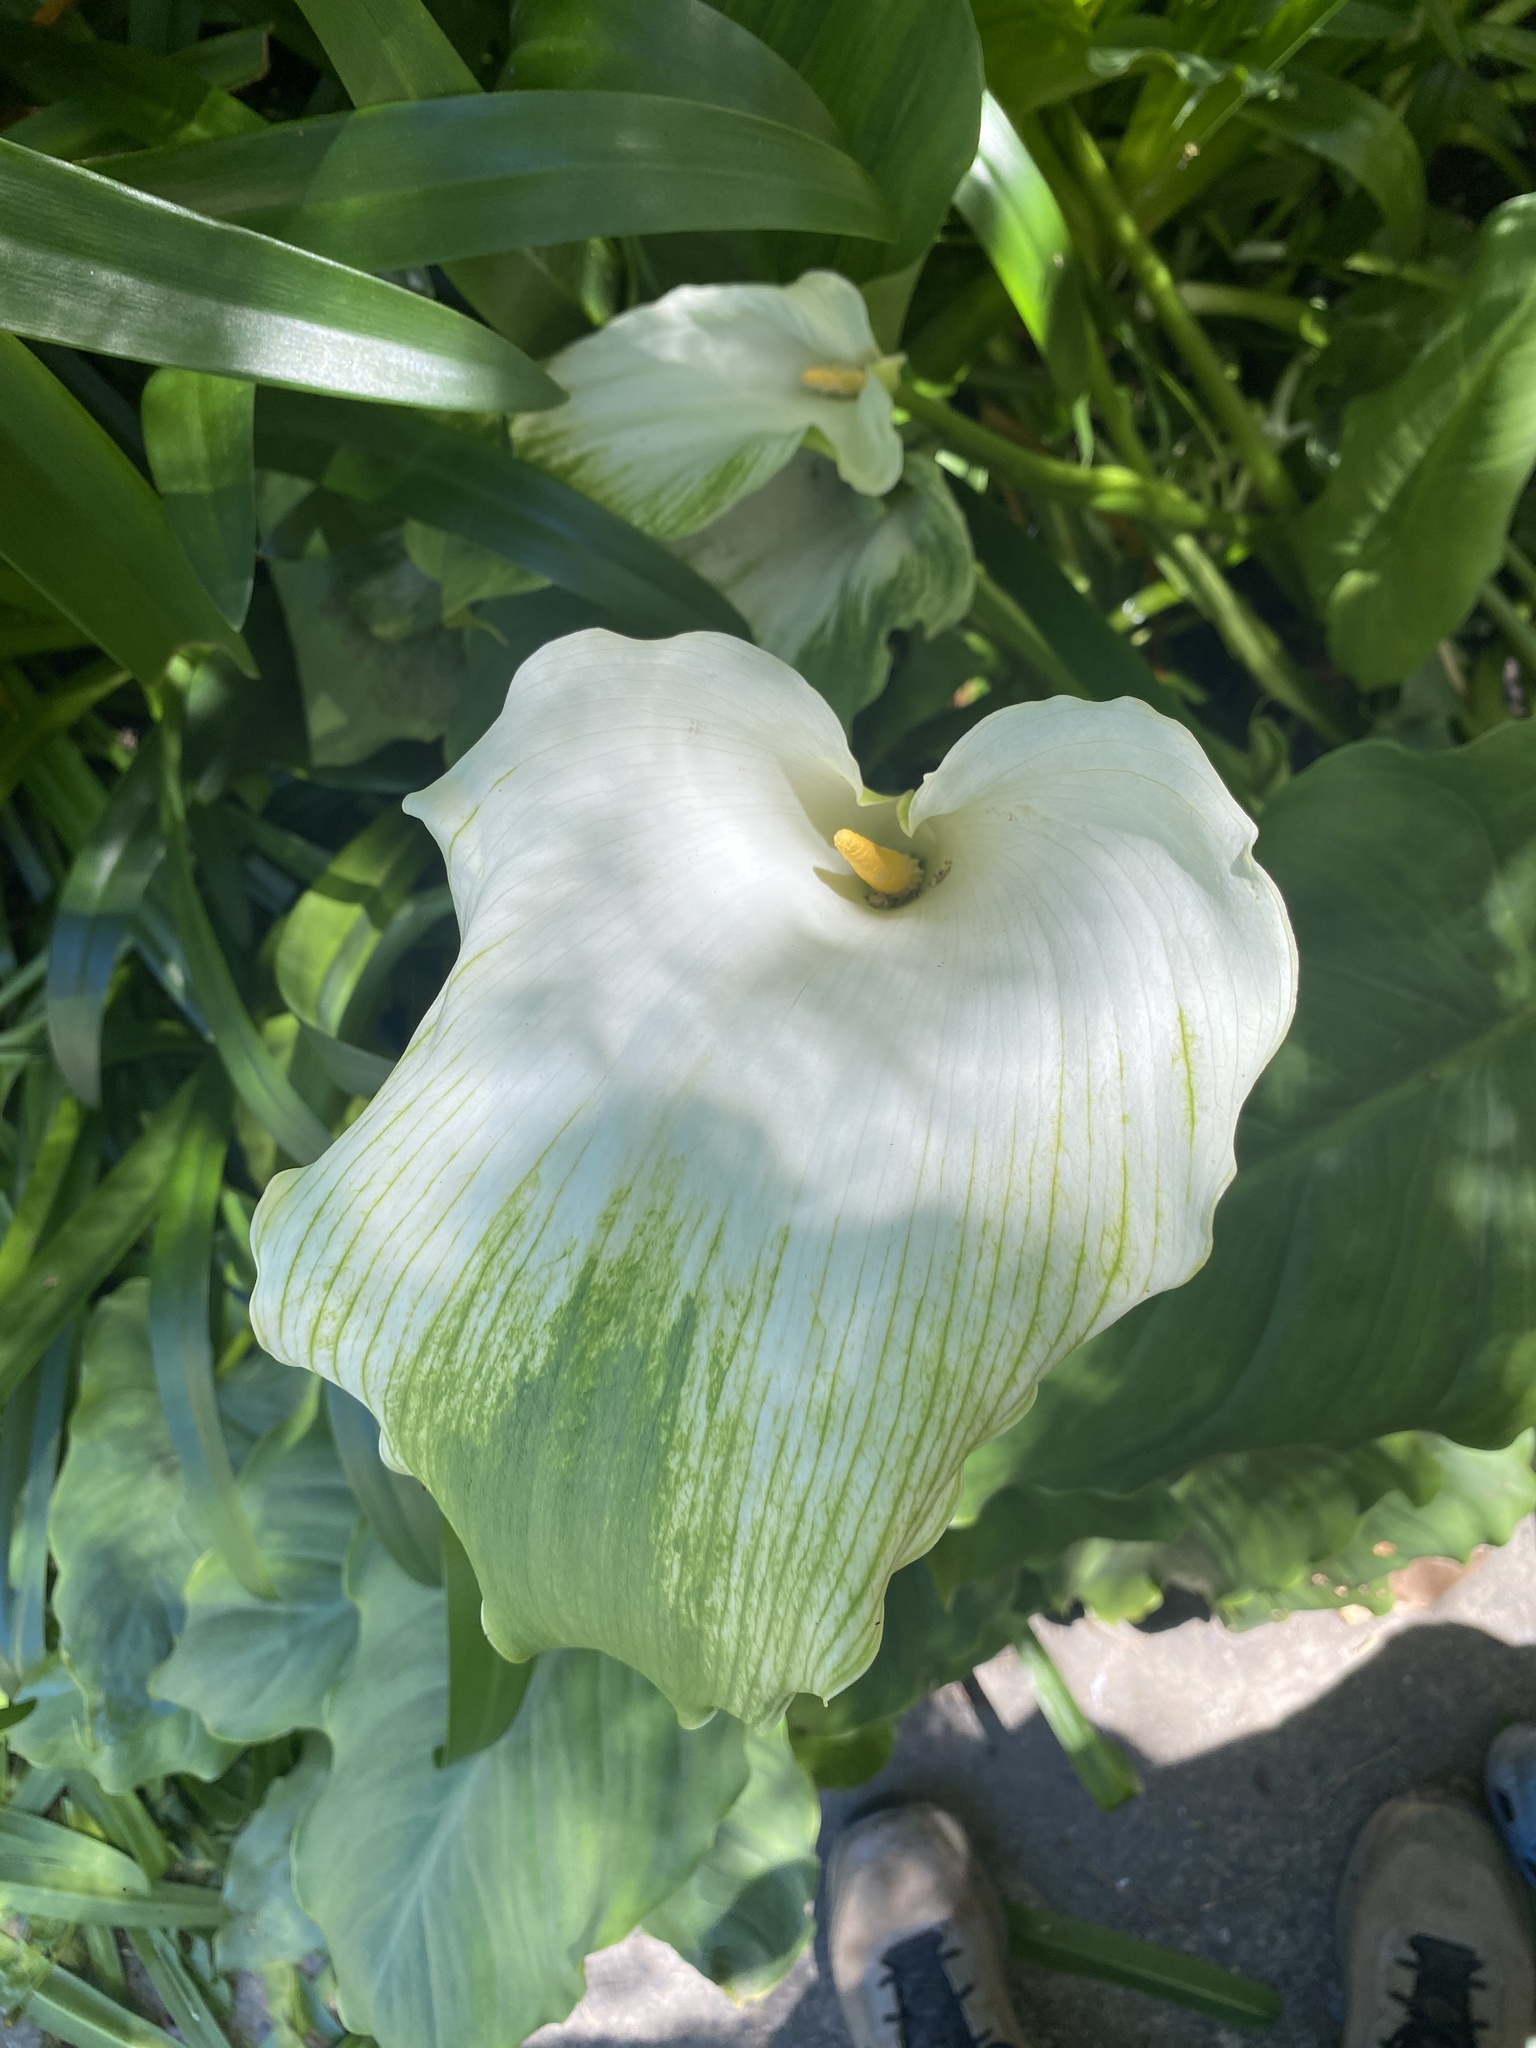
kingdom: Plantae
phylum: Tracheophyta
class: Liliopsida
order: Alismatales
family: Araceae
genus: Zantedeschia
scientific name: Zantedeschia aethiopica
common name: Altar-lily
